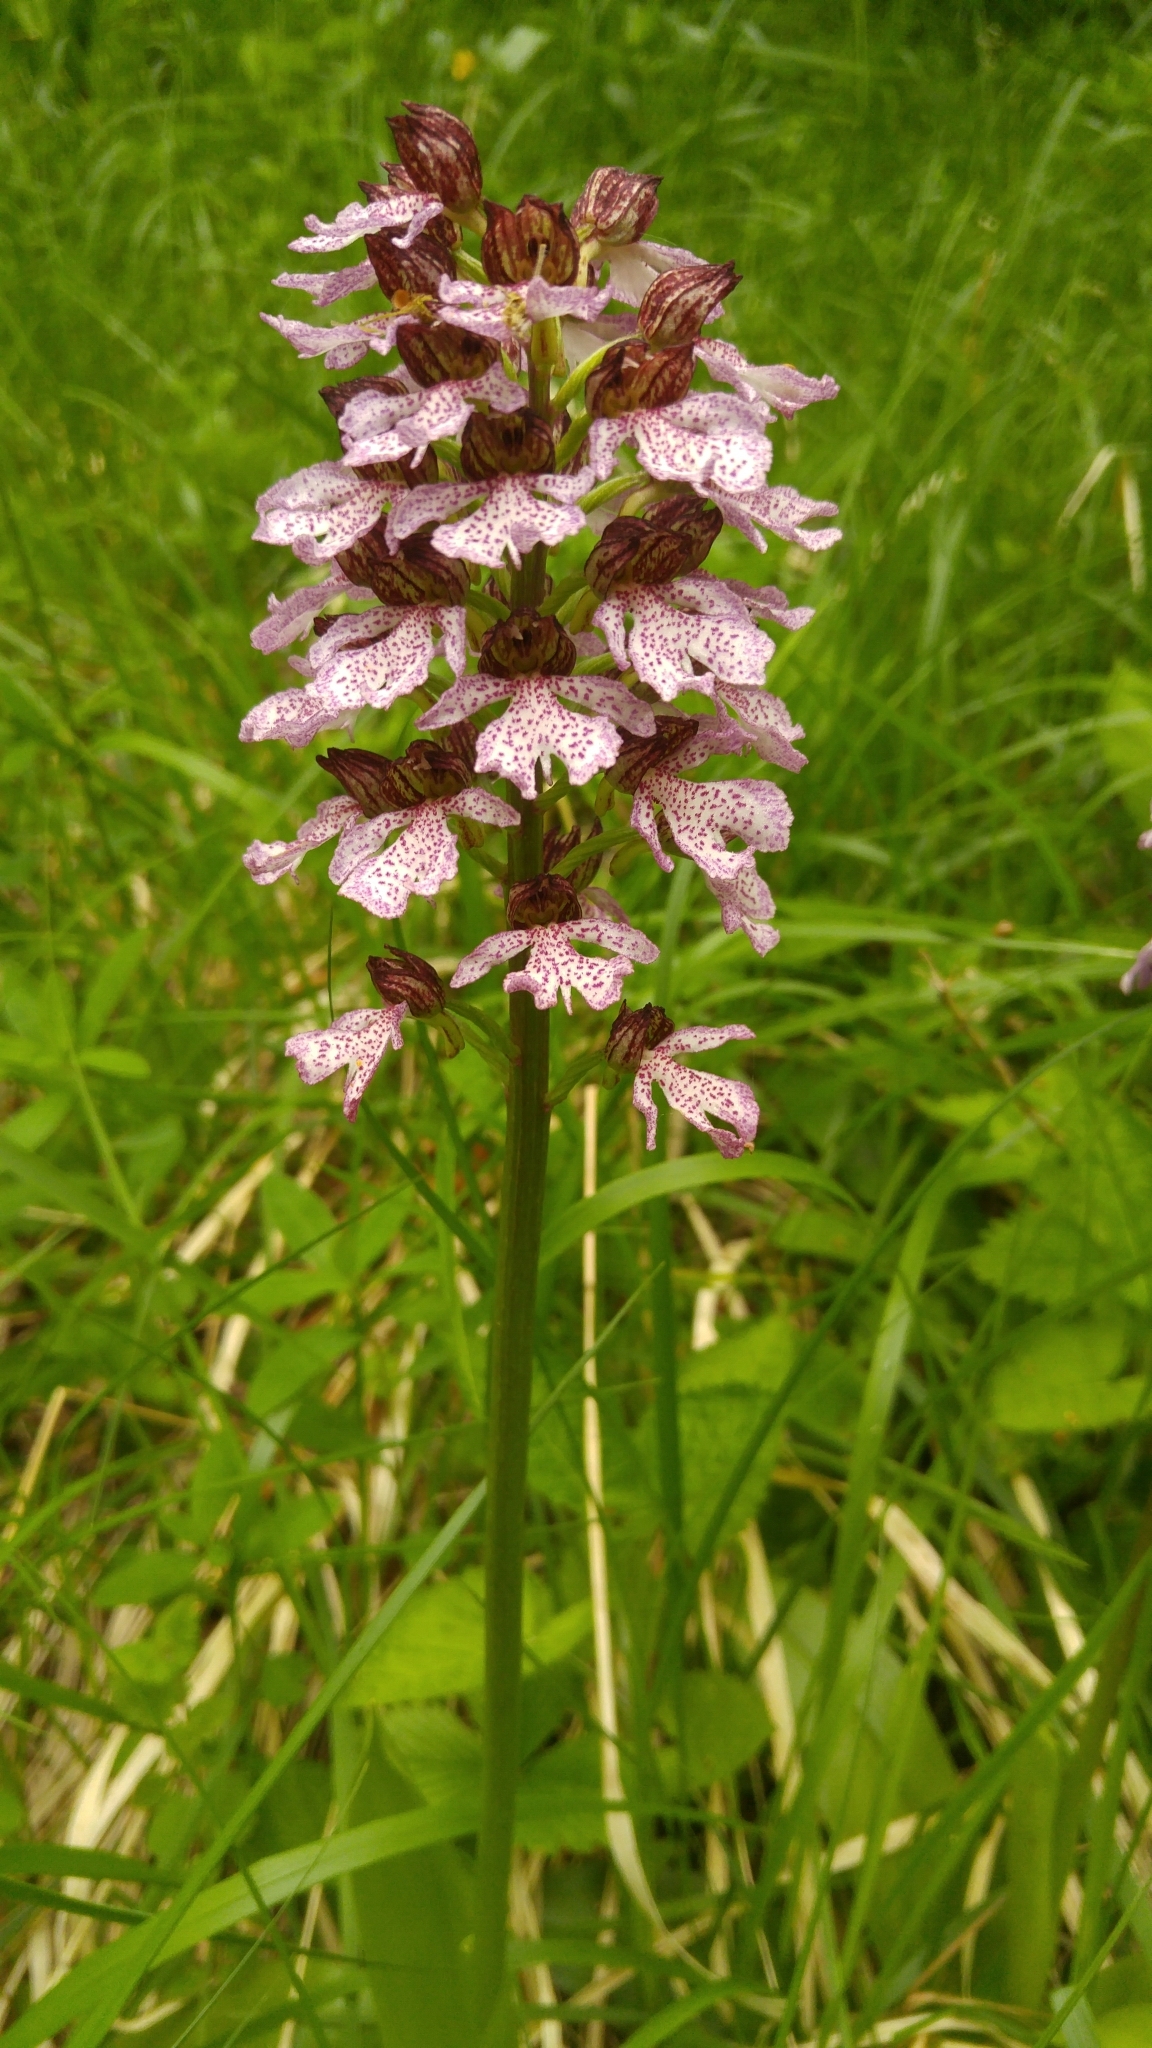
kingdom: Plantae
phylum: Tracheophyta
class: Liliopsida
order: Asparagales
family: Orchidaceae
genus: Orchis
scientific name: Orchis purpurea
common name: Lady orchid
